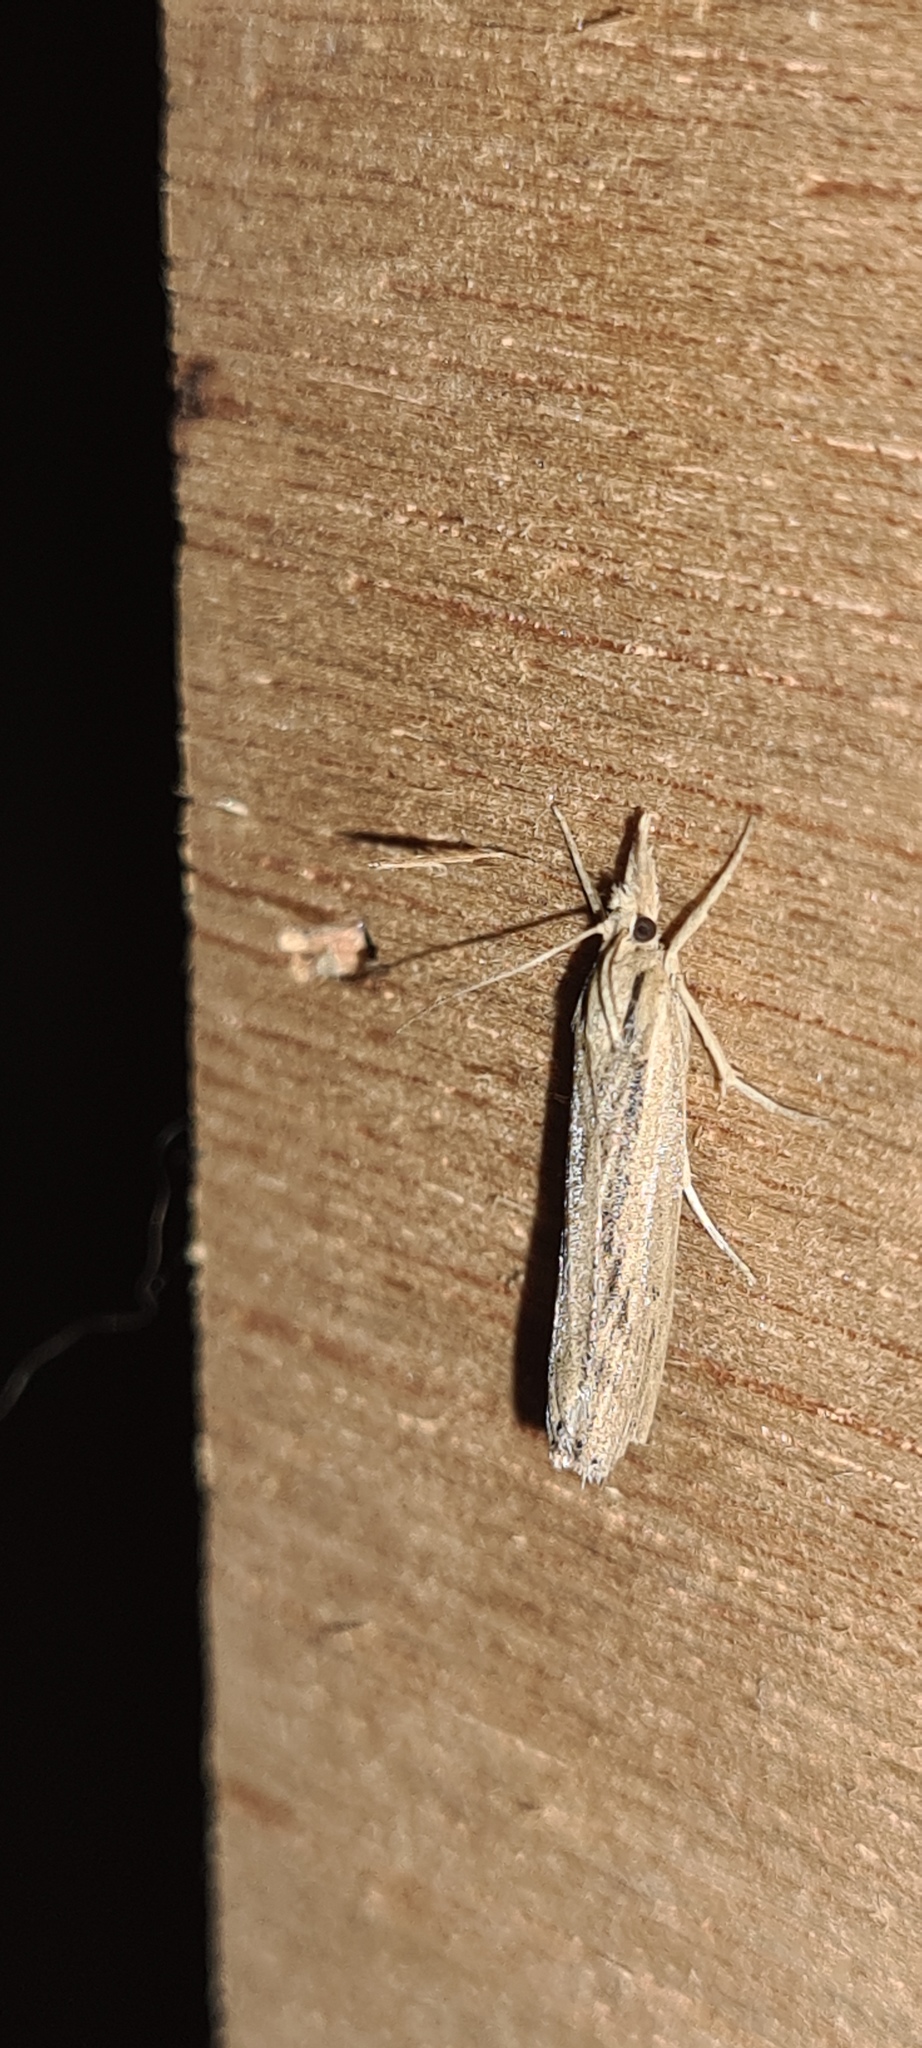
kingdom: Animalia
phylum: Arthropoda
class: Insecta
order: Lepidoptera
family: Crambidae
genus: Pediasia
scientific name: Pediasia aridella
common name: Salt-marsh grass-veneer
